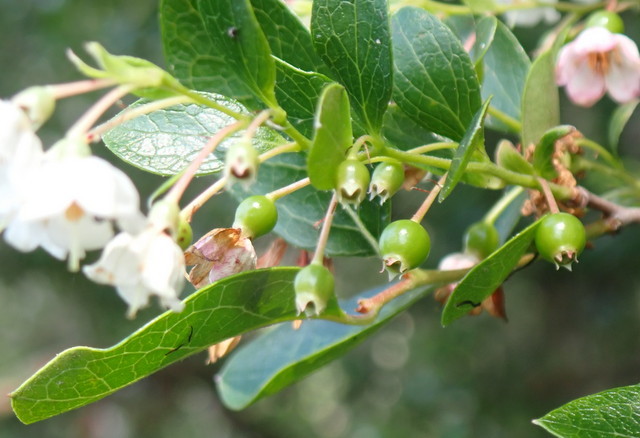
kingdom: Plantae
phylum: Tracheophyta
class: Magnoliopsida
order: Ericales
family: Ericaceae
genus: Vaccinium
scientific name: Vaccinium arboreum
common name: Farkleberry
